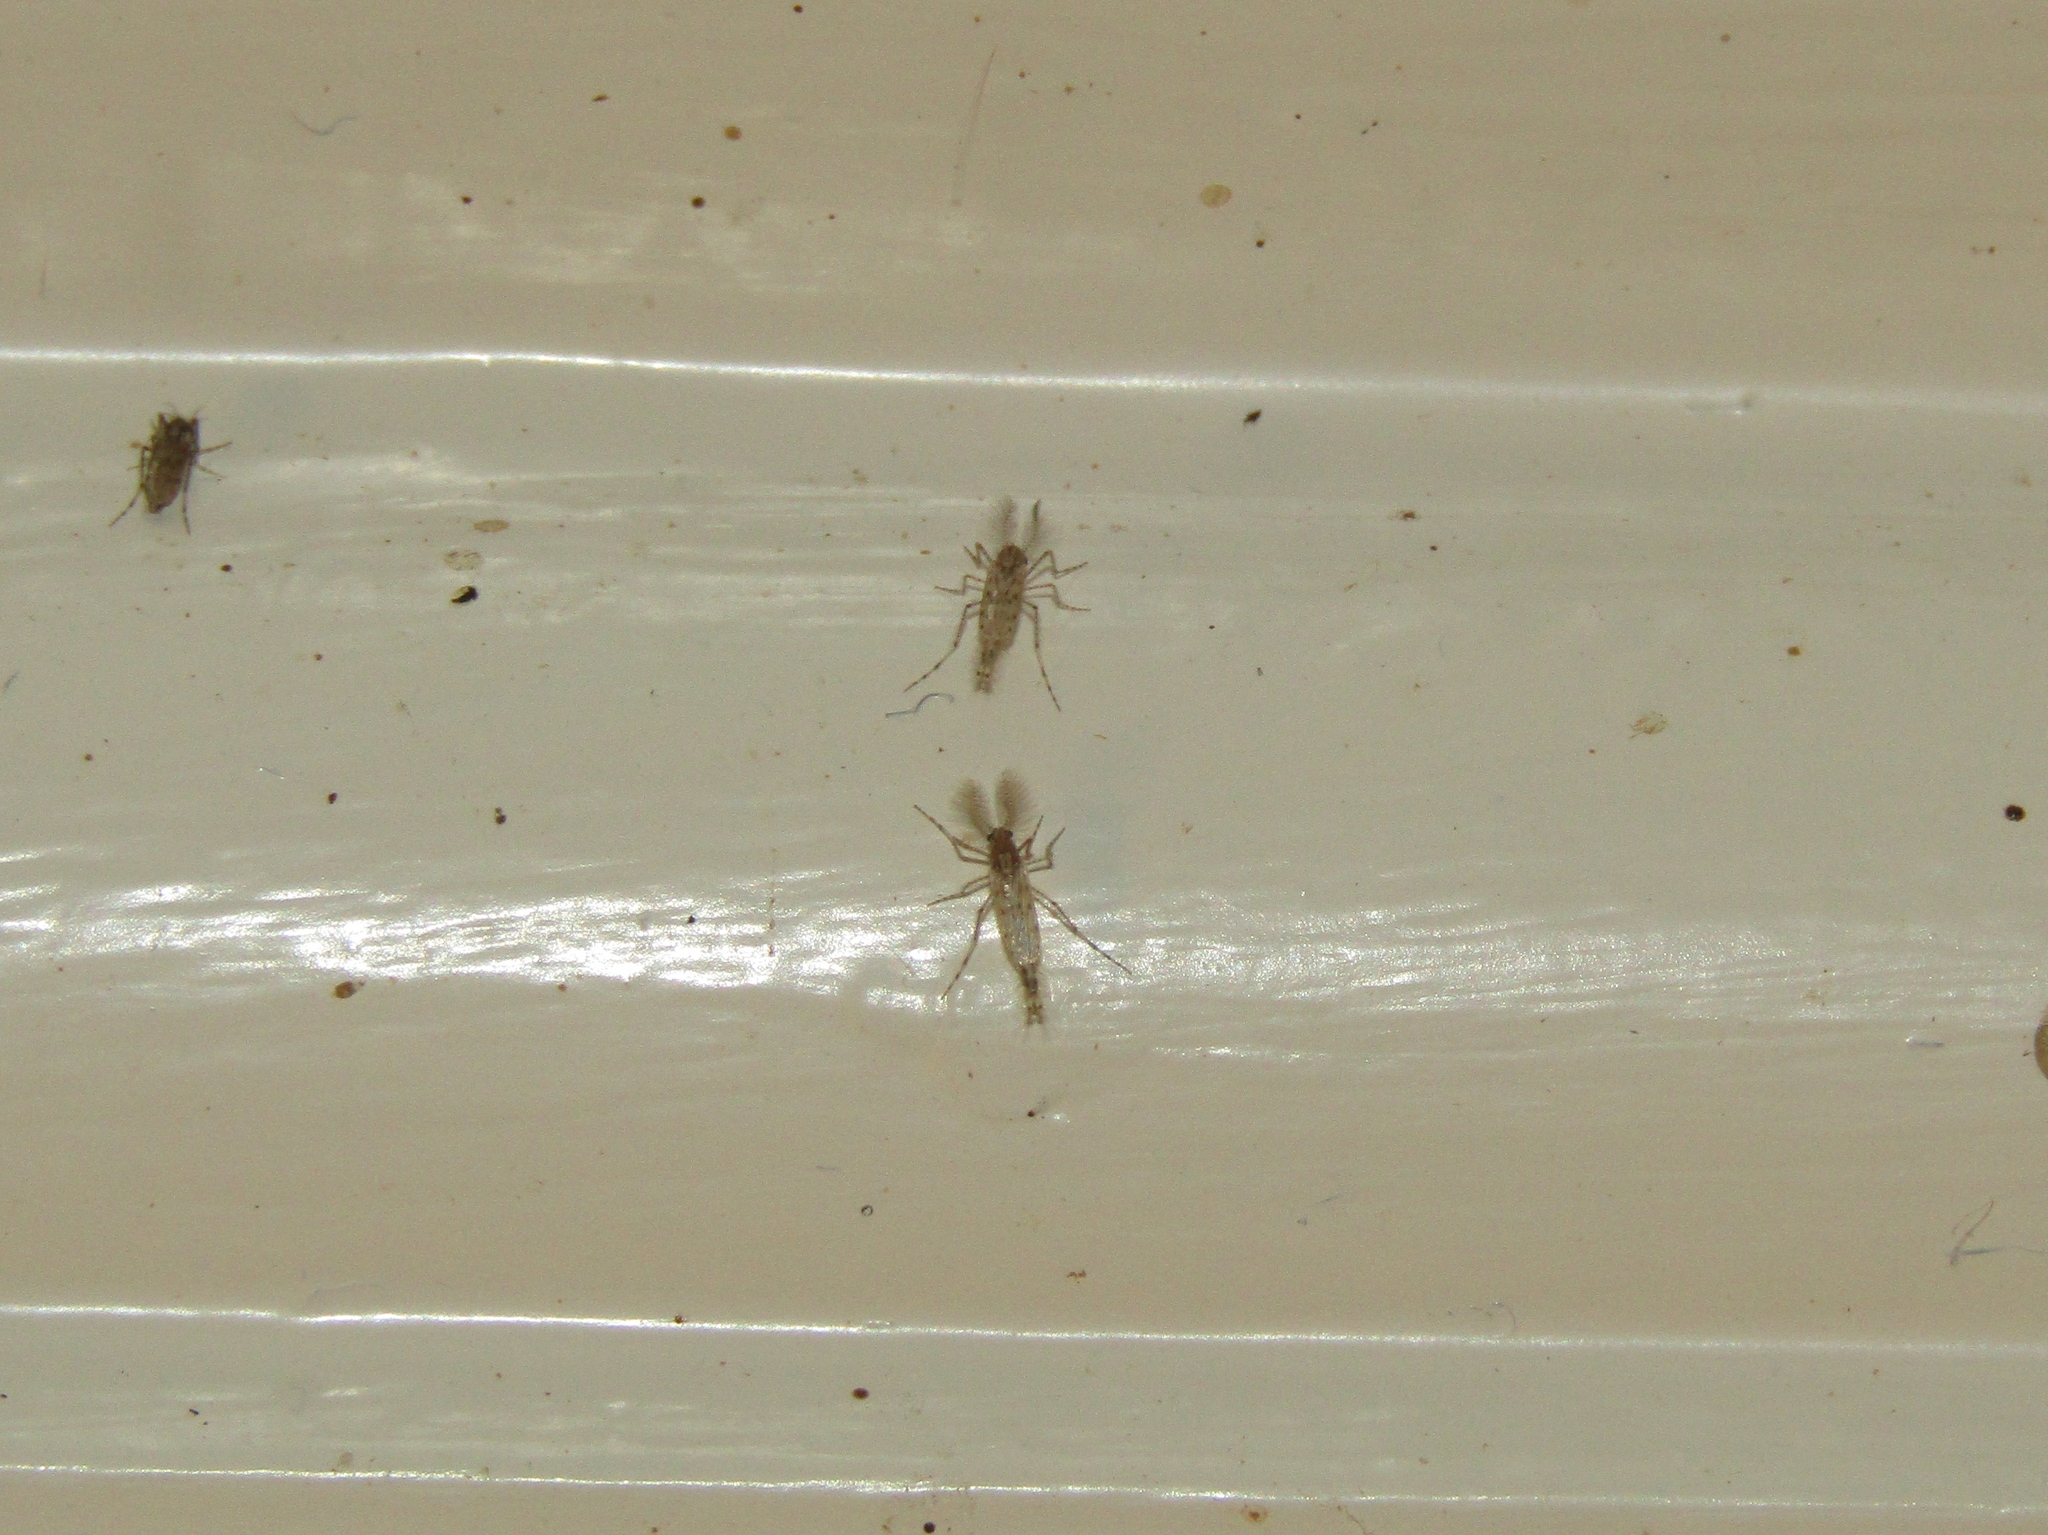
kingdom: Animalia
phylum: Arthropoda
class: Insecta
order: Diptera
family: Chaoboridae
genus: Chaoborus
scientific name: Chaoborus punctipennis
